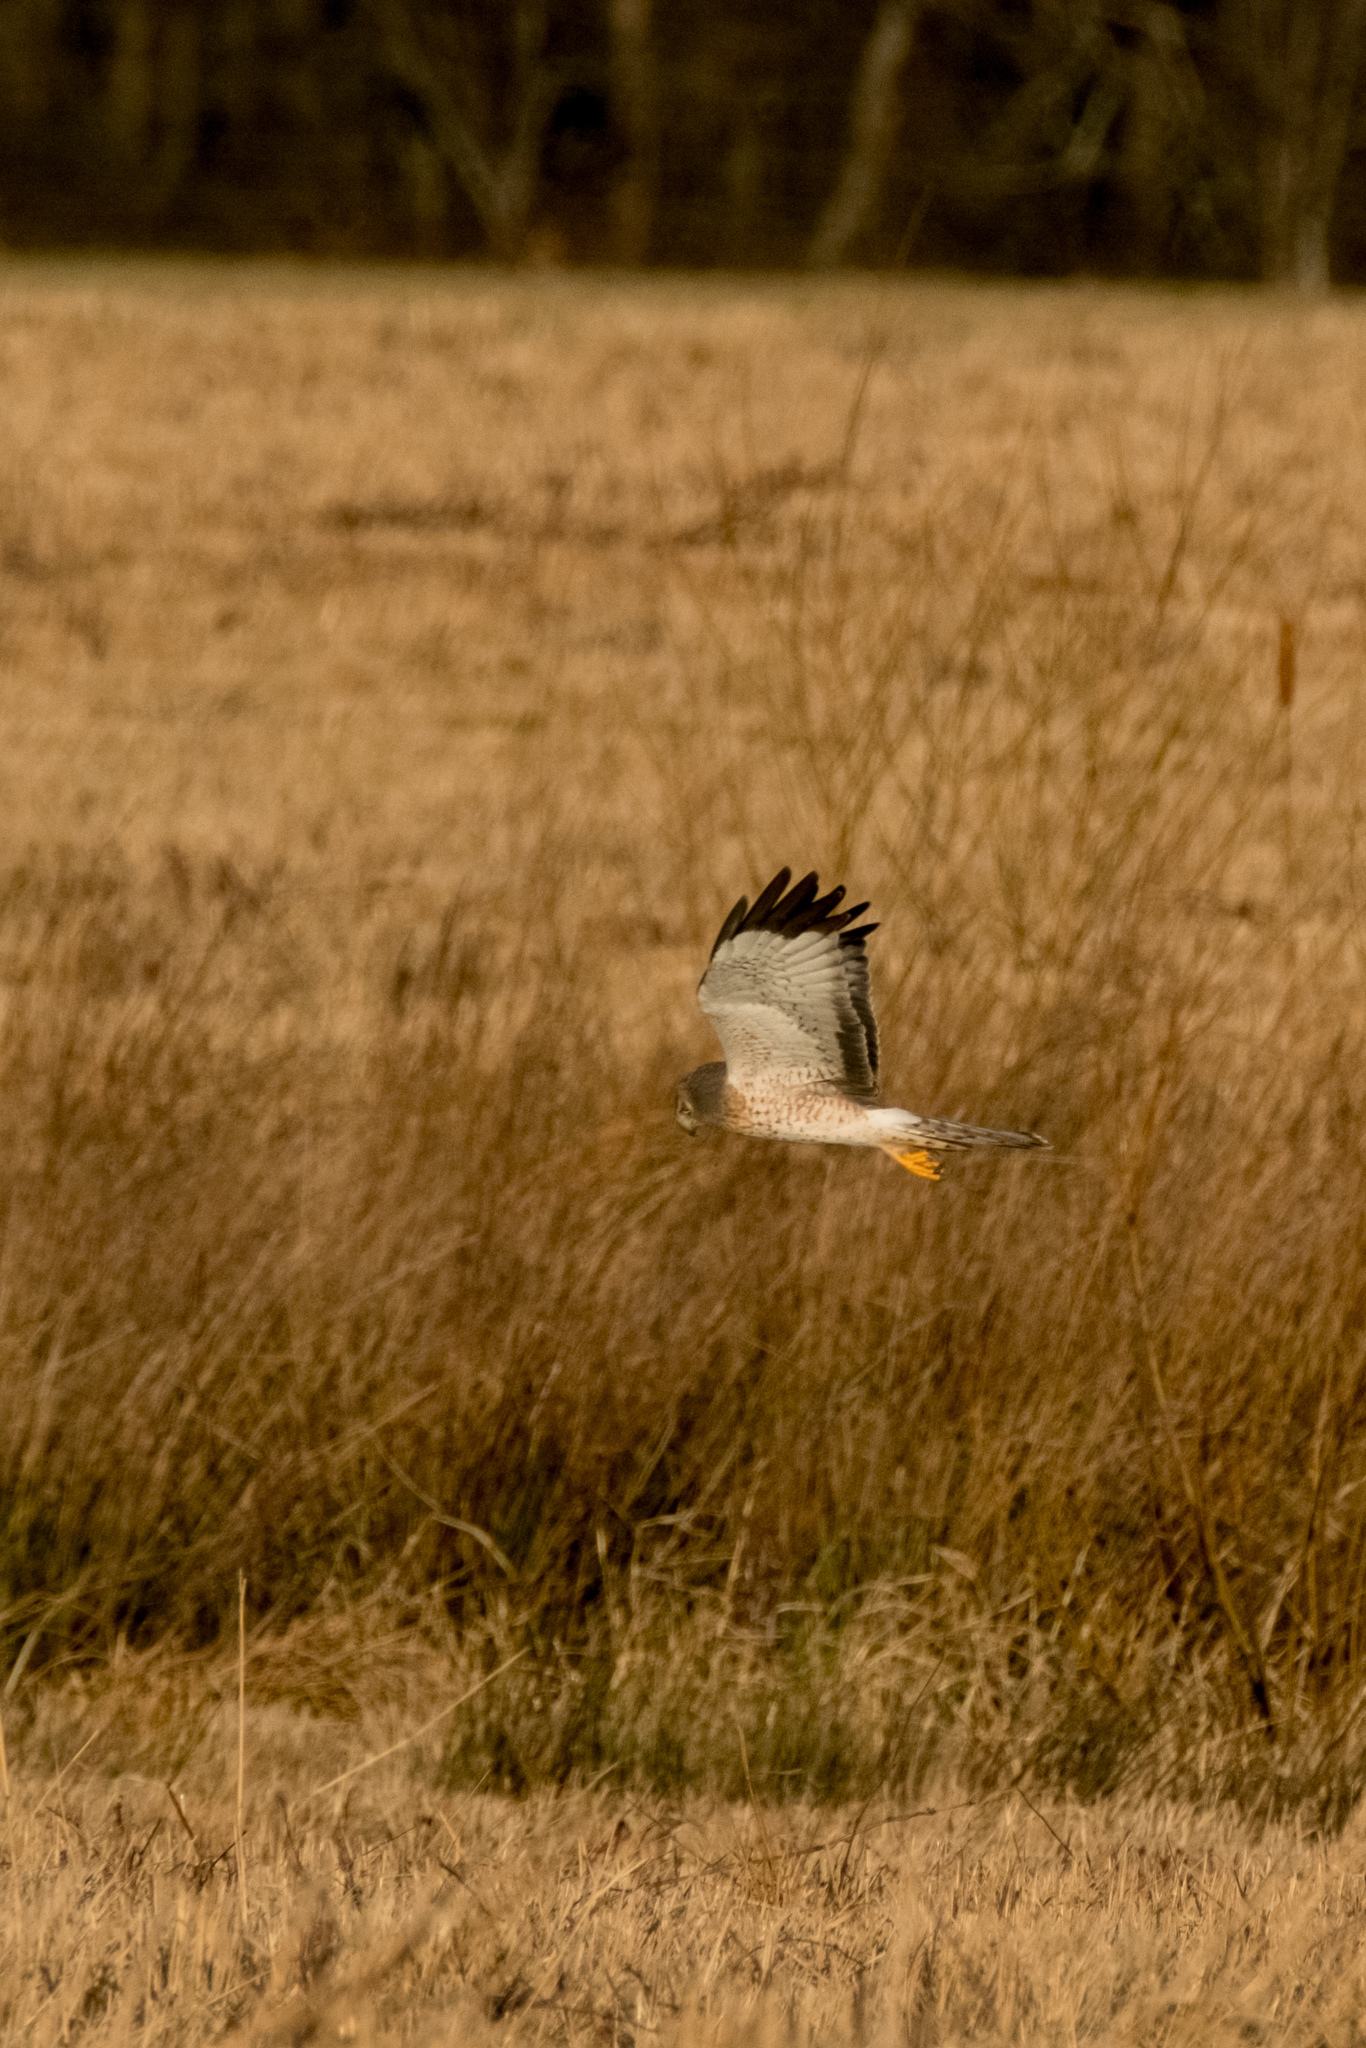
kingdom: Animalia
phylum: Chordata
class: Aves
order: Accipitriformes
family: Accipitridae
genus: Circus
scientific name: Circus cyaneus
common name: Hen harrier
